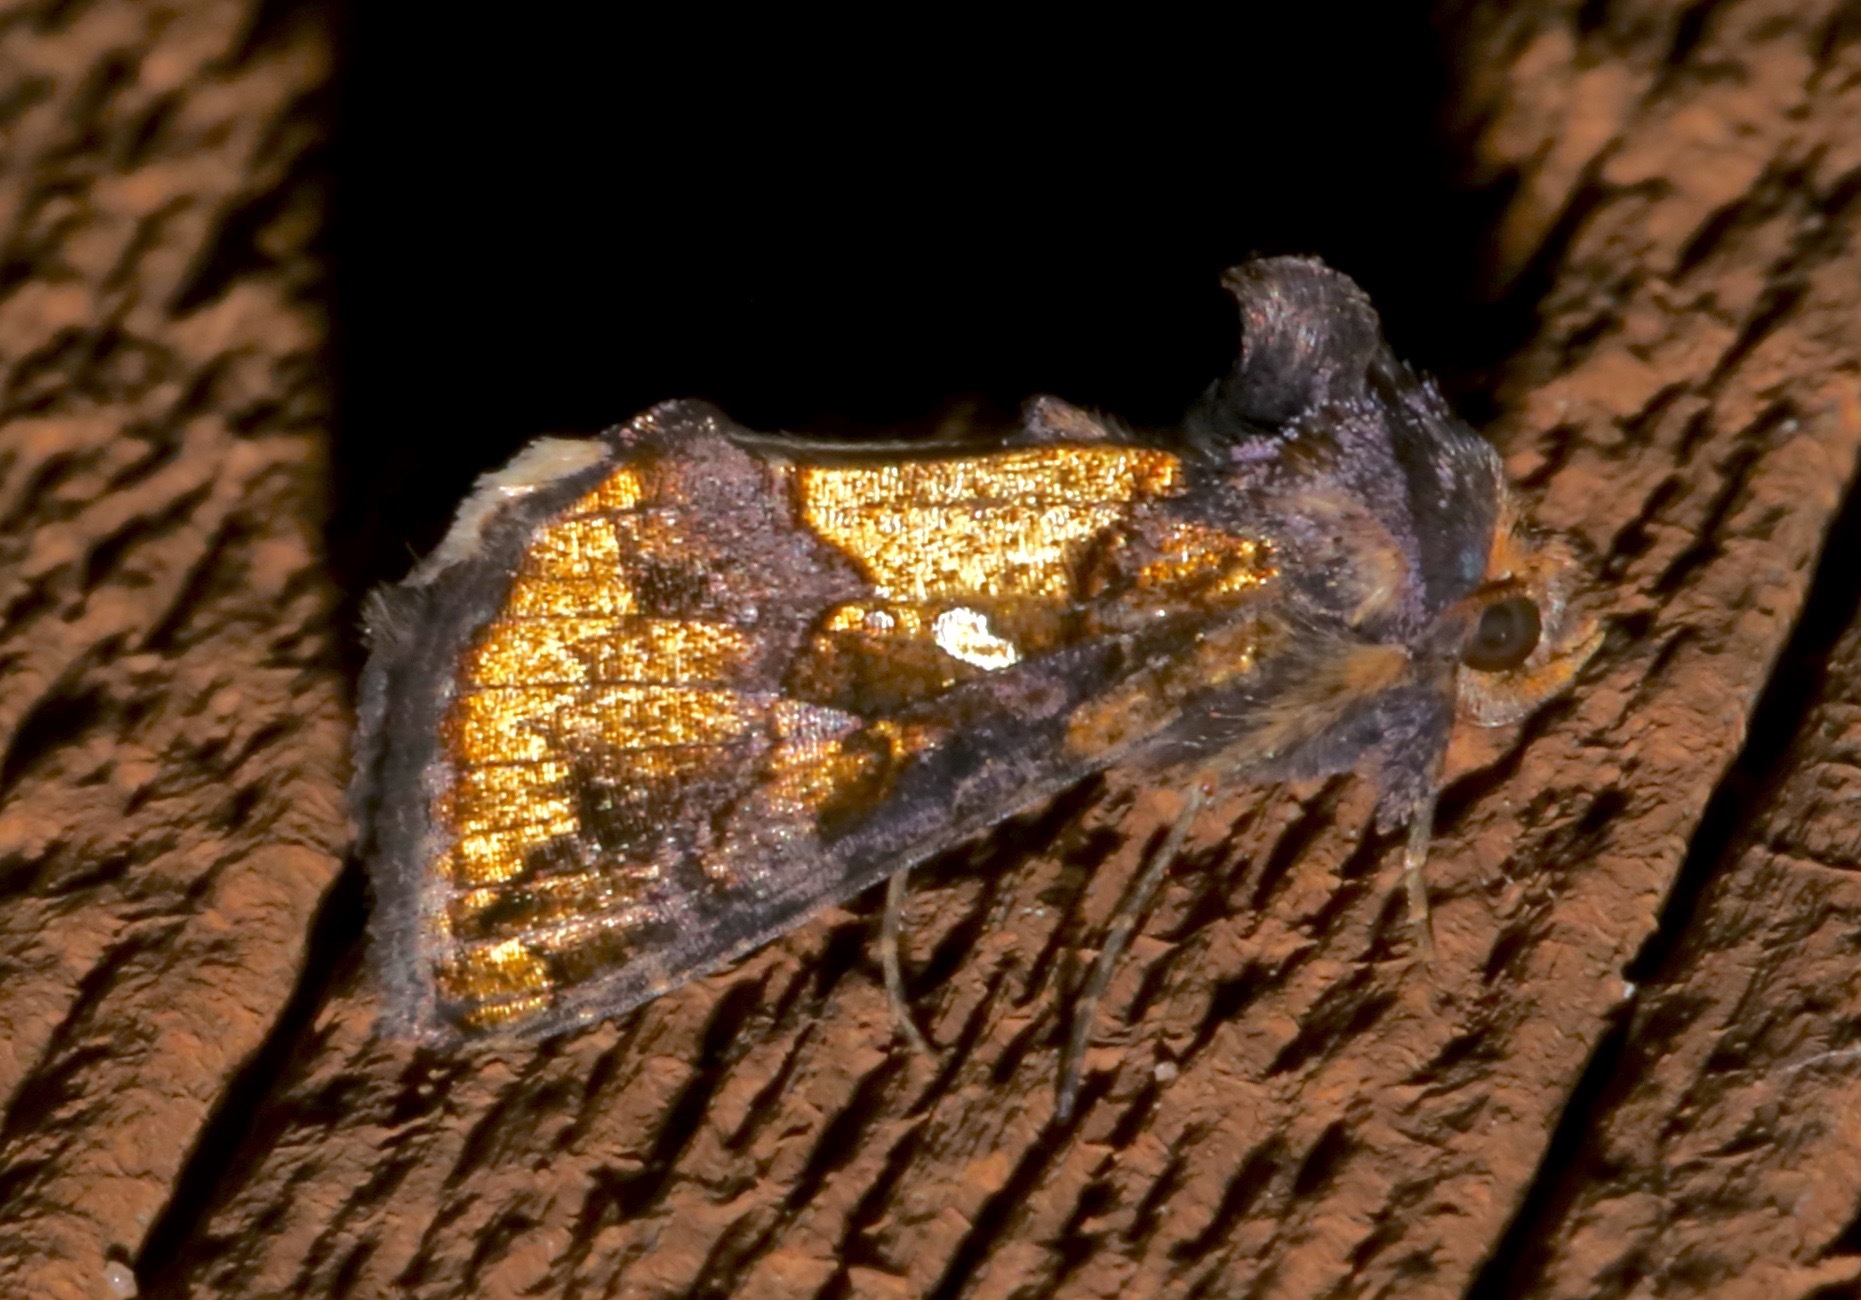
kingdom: Animalia
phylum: Arthropoda
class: Insecta
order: Lepidoptera
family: Noctuidae
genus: Argyrogramma
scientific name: Argyrogramma verruca
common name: Golden looper moth
